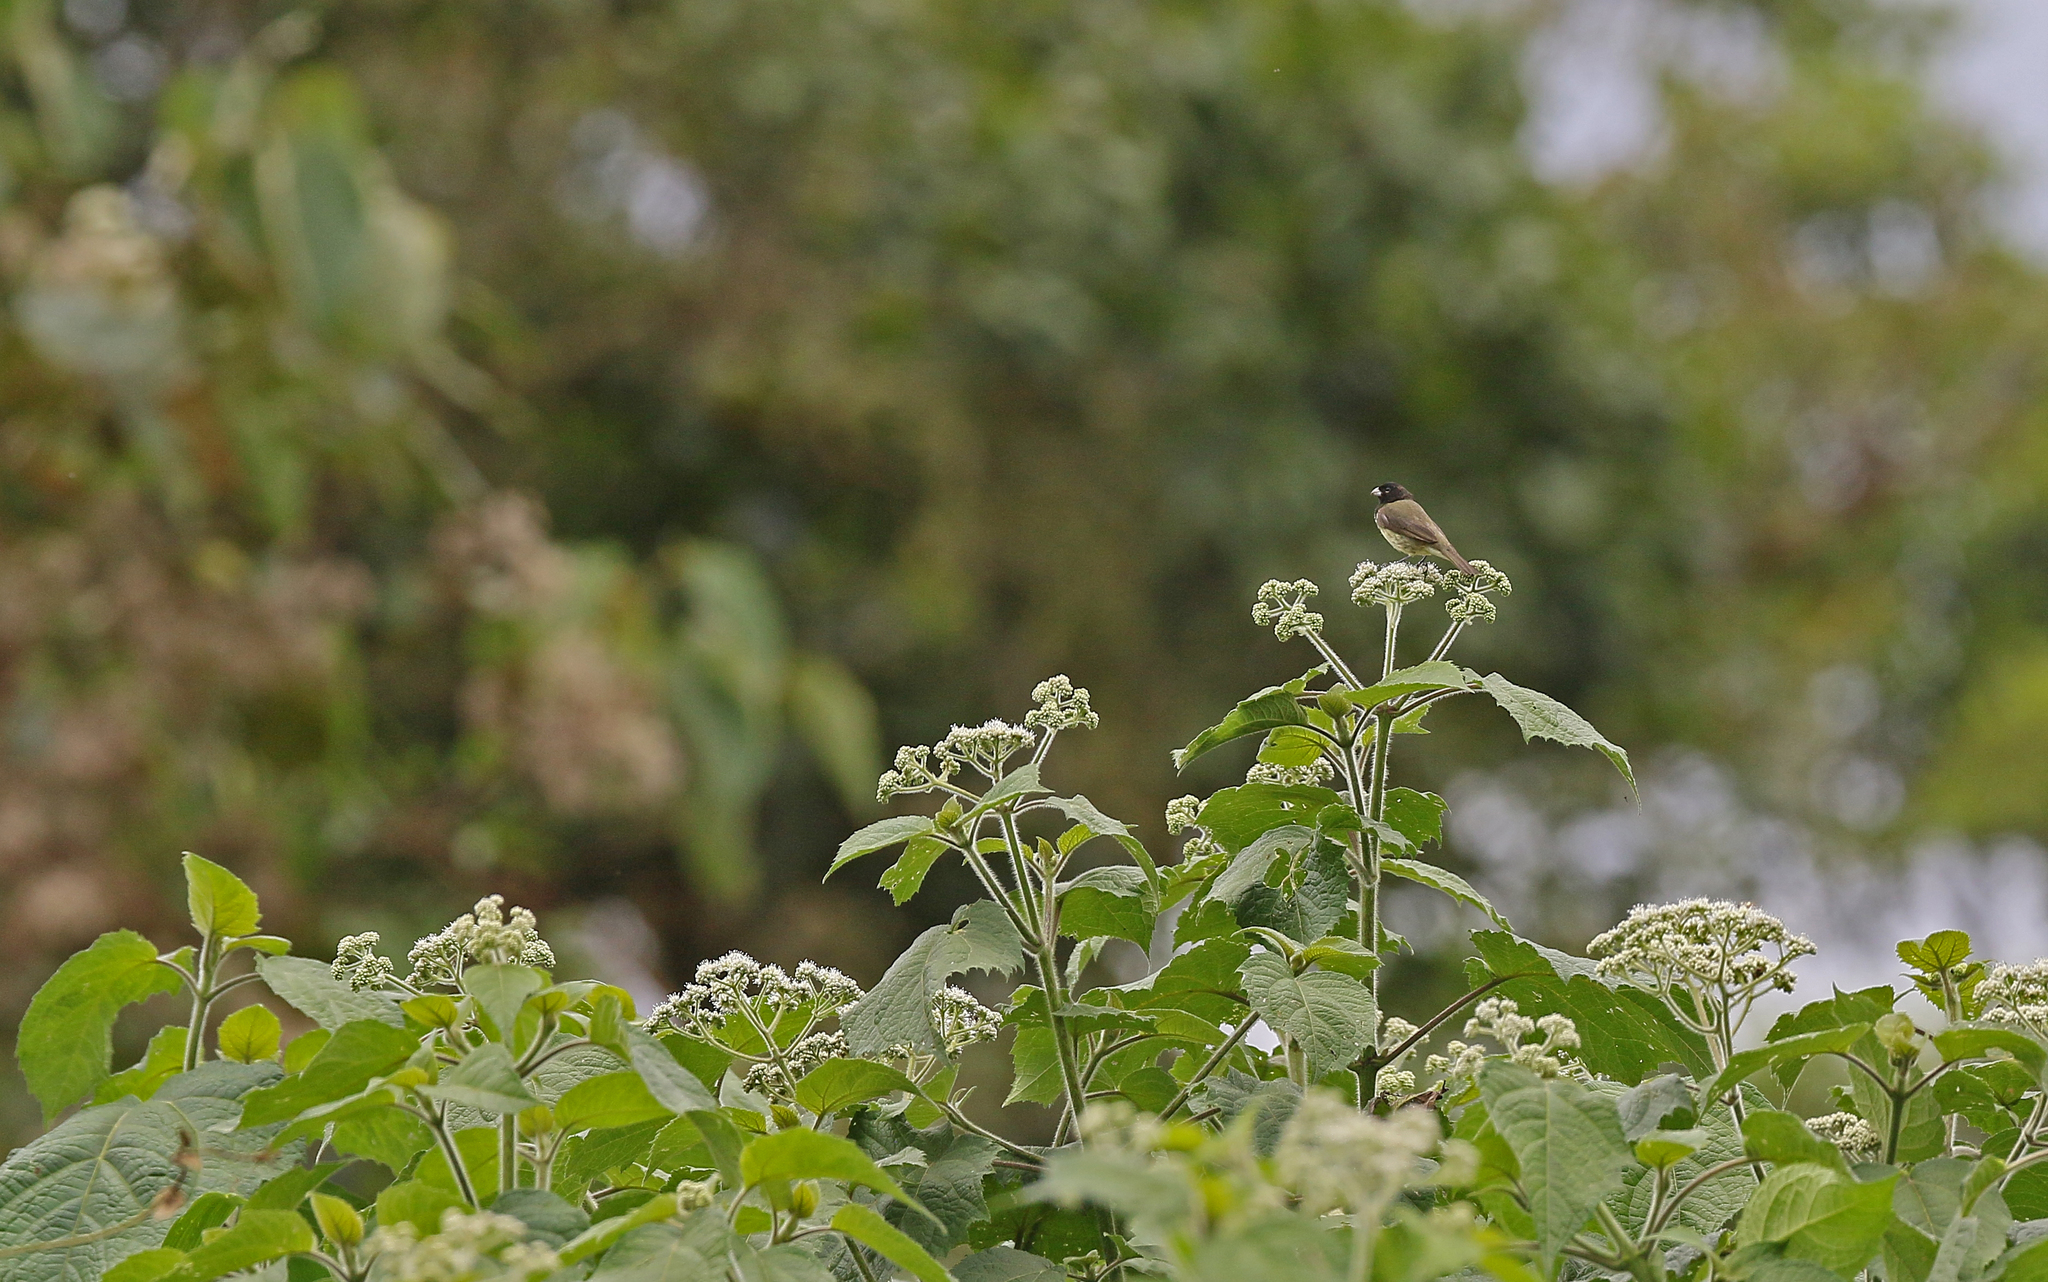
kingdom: Animalia
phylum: Chordata
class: Aves
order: Passeriformes
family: Thraupidae
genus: Sporophila
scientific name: Sporophila nigricollis
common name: Yellow-bellied seedeater
